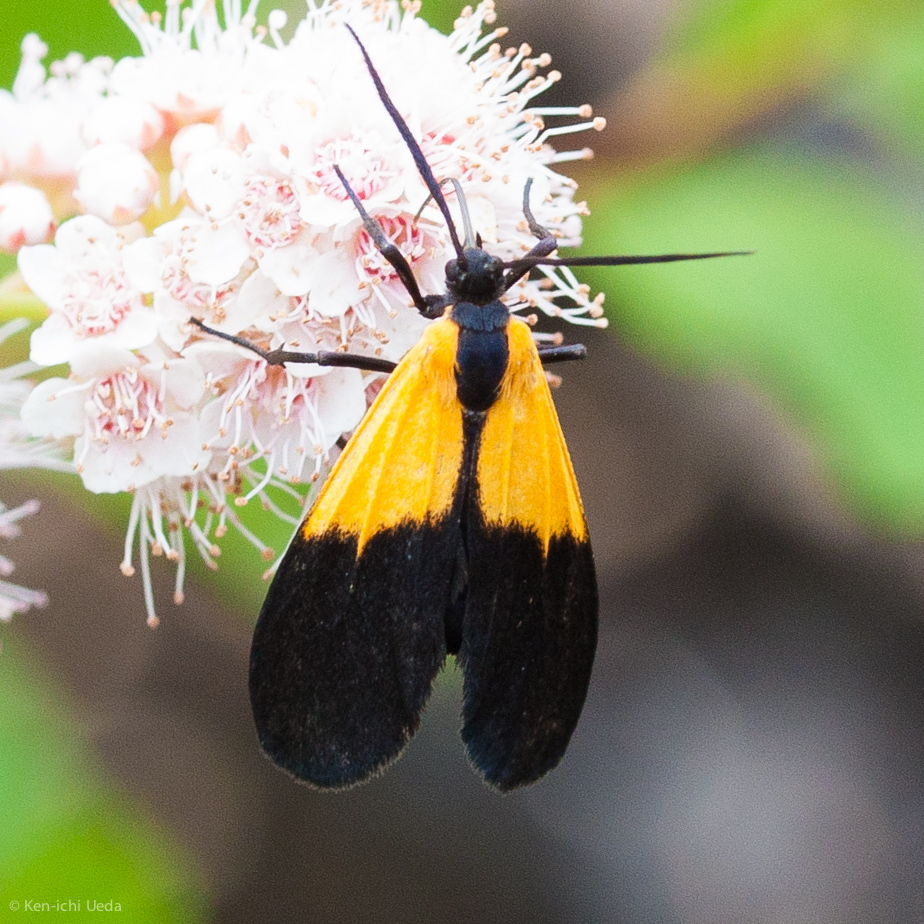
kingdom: Animalia
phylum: Arthropoda
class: Insecta
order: Lepidoptera
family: Erebidae
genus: Lycomorpha
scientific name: Lycomorpha pholus
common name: Black-and-yellow lichen moth
